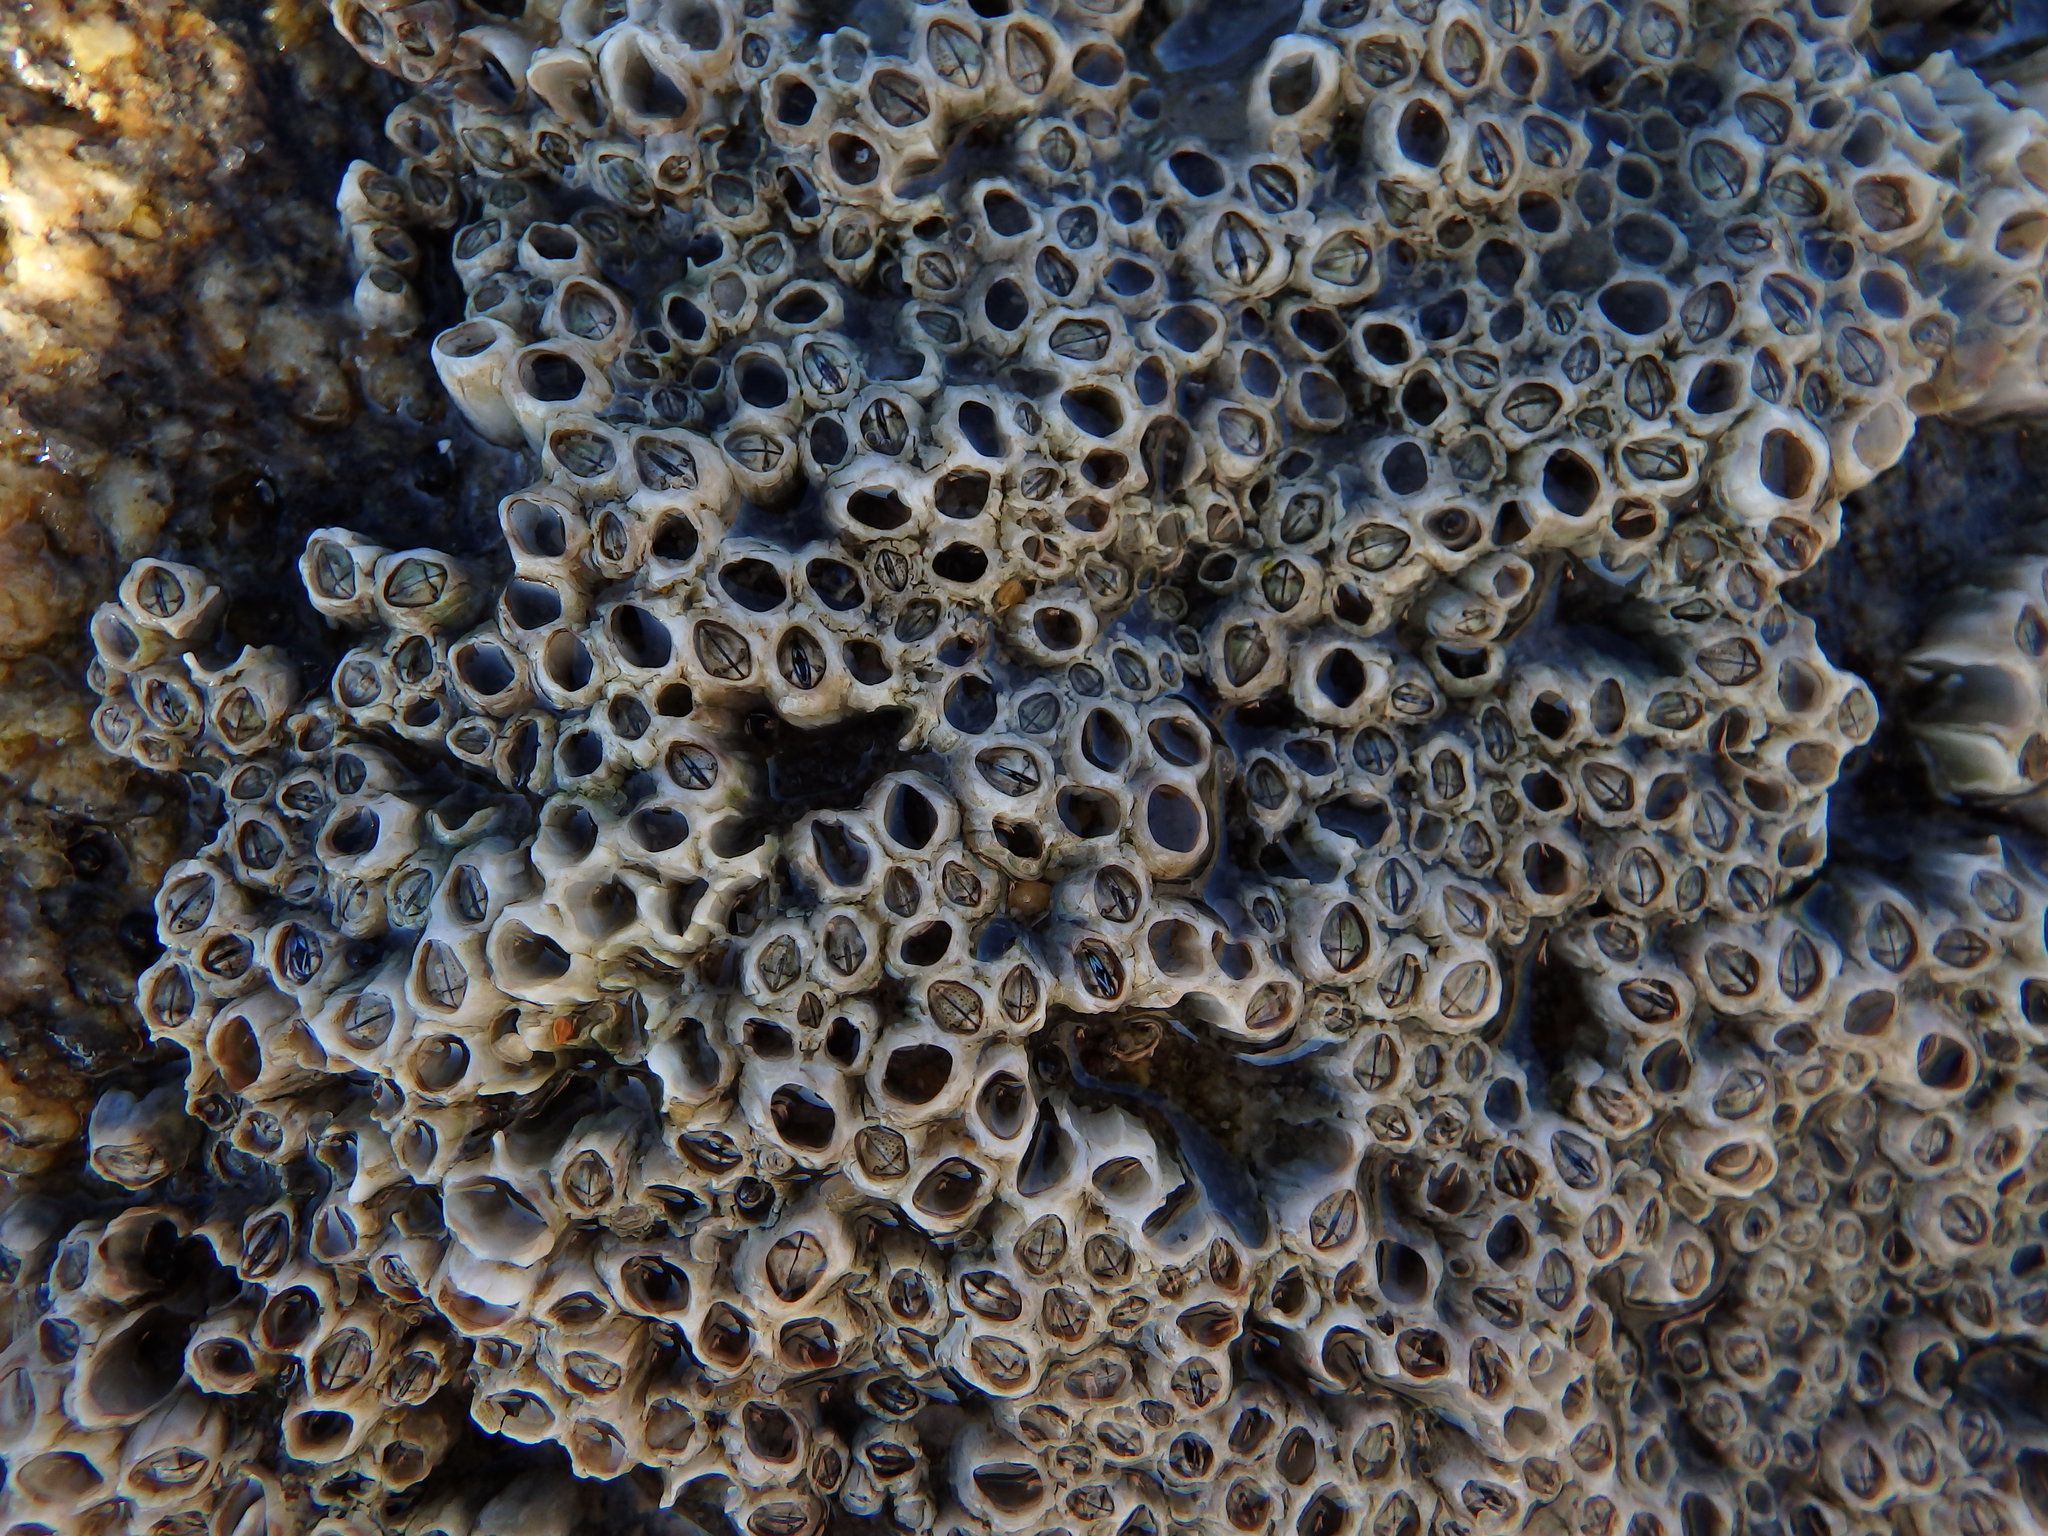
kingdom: Animalia
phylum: Arthropoda
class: Maxillopoda
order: Sessilia
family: Chthamalidae
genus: Chthamalus
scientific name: Chthamalus montagui
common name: Montagu's stellate barnacle
